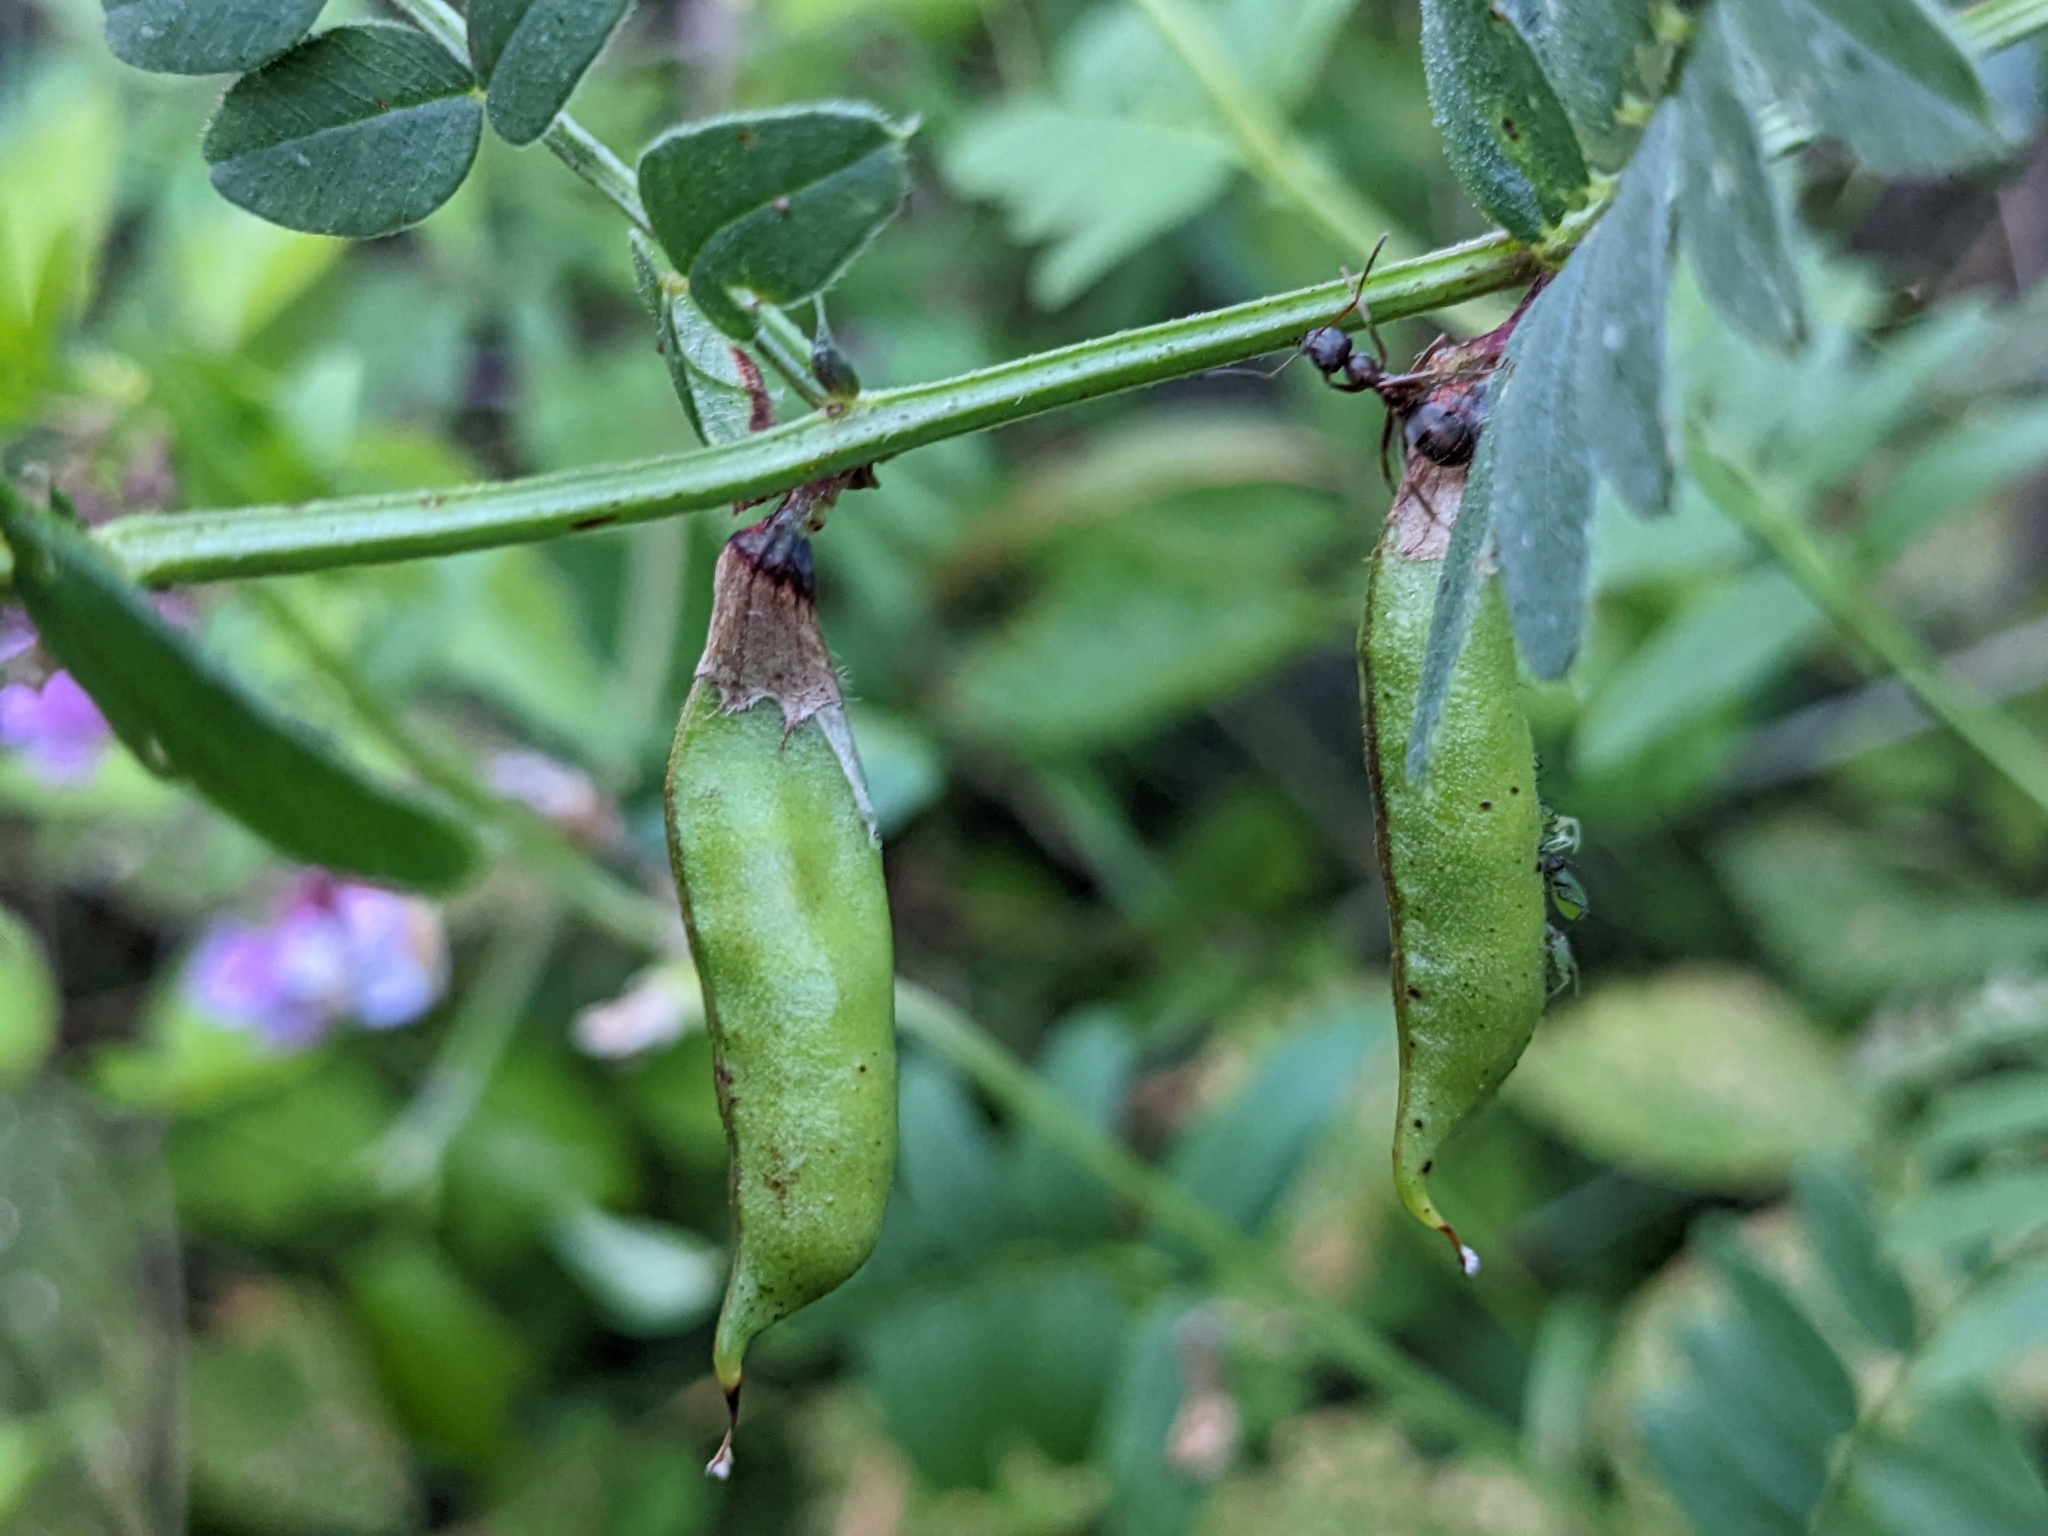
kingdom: Plantae
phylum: Tracheophyta
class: Magnoliopsida
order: Fabales
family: Fabaceae
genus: Vicia
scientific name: Vicia sepium
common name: Bush vetch
